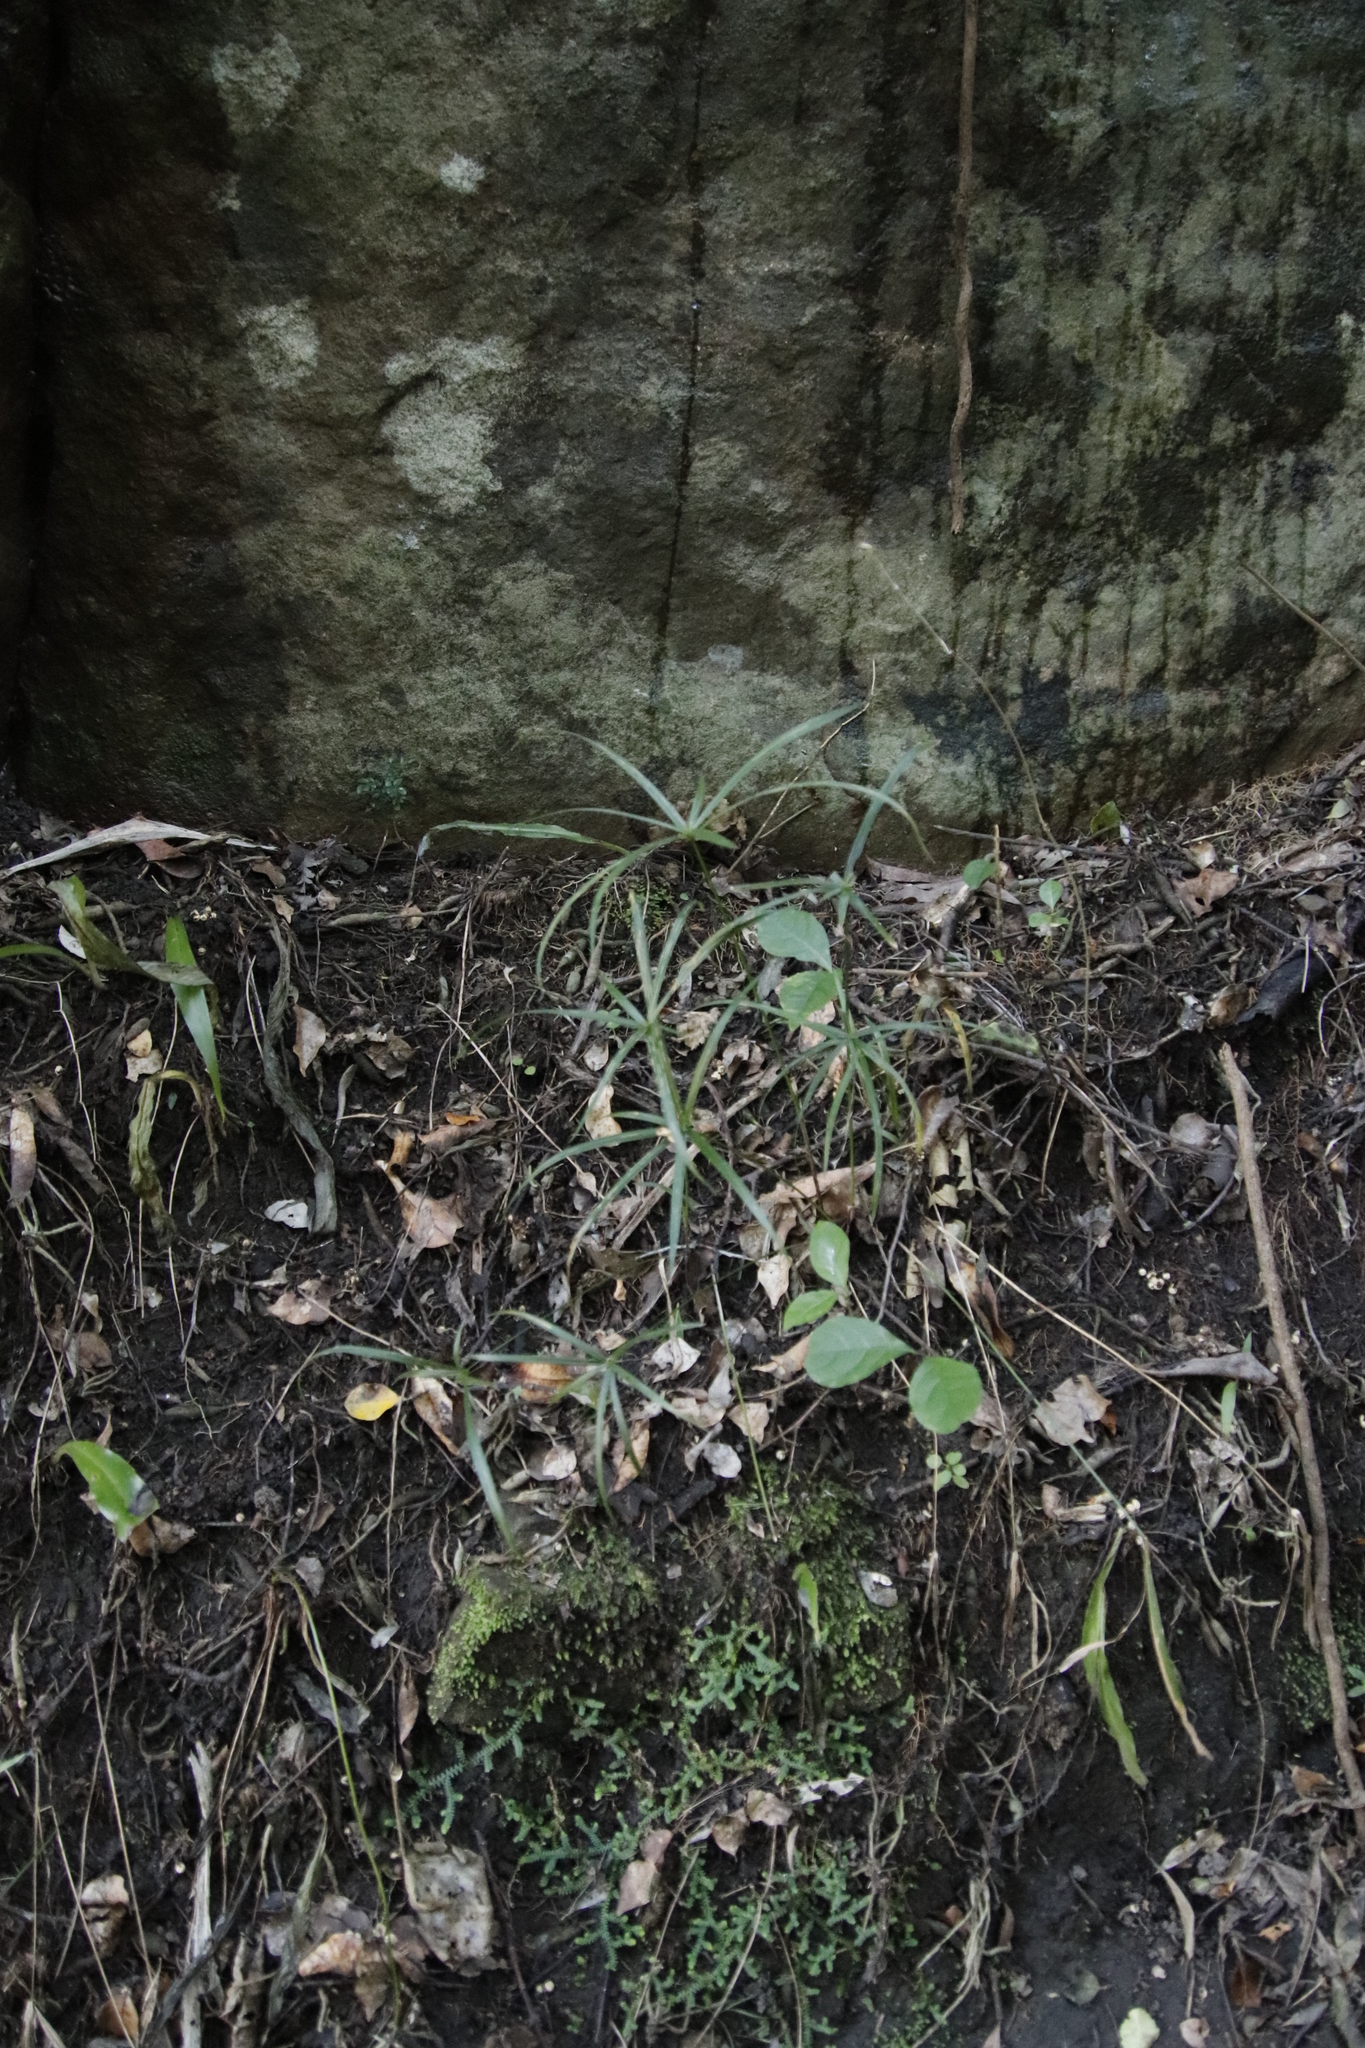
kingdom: Plantae
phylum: Tracheophyta
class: Liliopsida
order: Poales
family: Cyperaceae
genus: Cyperus
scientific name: Cyperus albostriatus
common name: Dwarf umbrella-grass
